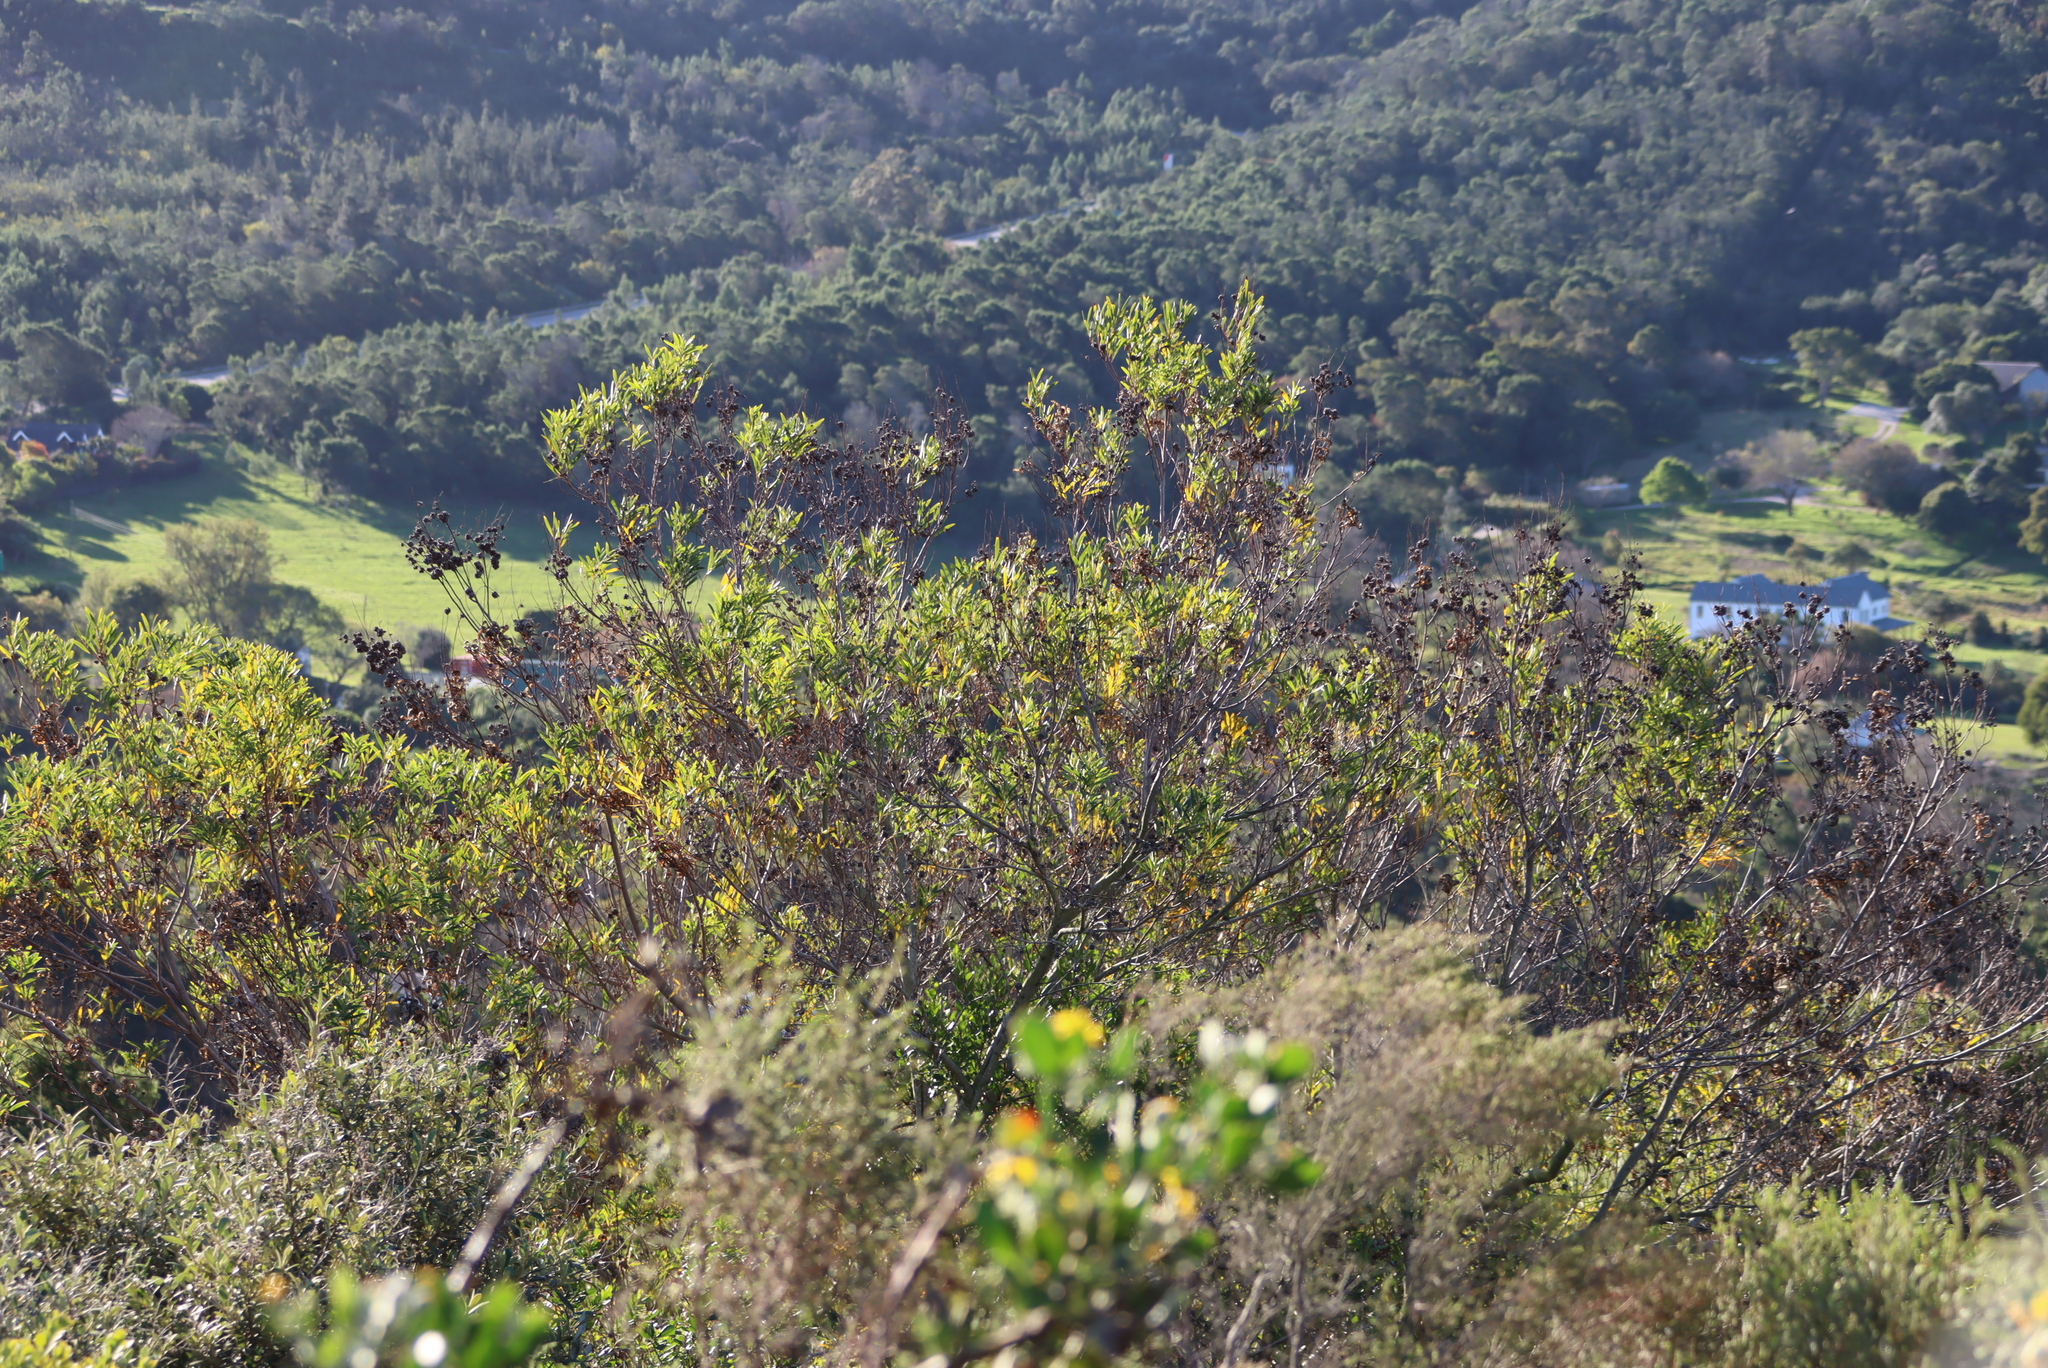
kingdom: Plantae
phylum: Tracheophyta
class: Magnoliopsida
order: Fabales
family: Fabaceae
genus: Acacia
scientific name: Acacia cyclops
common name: Coastal wattle
